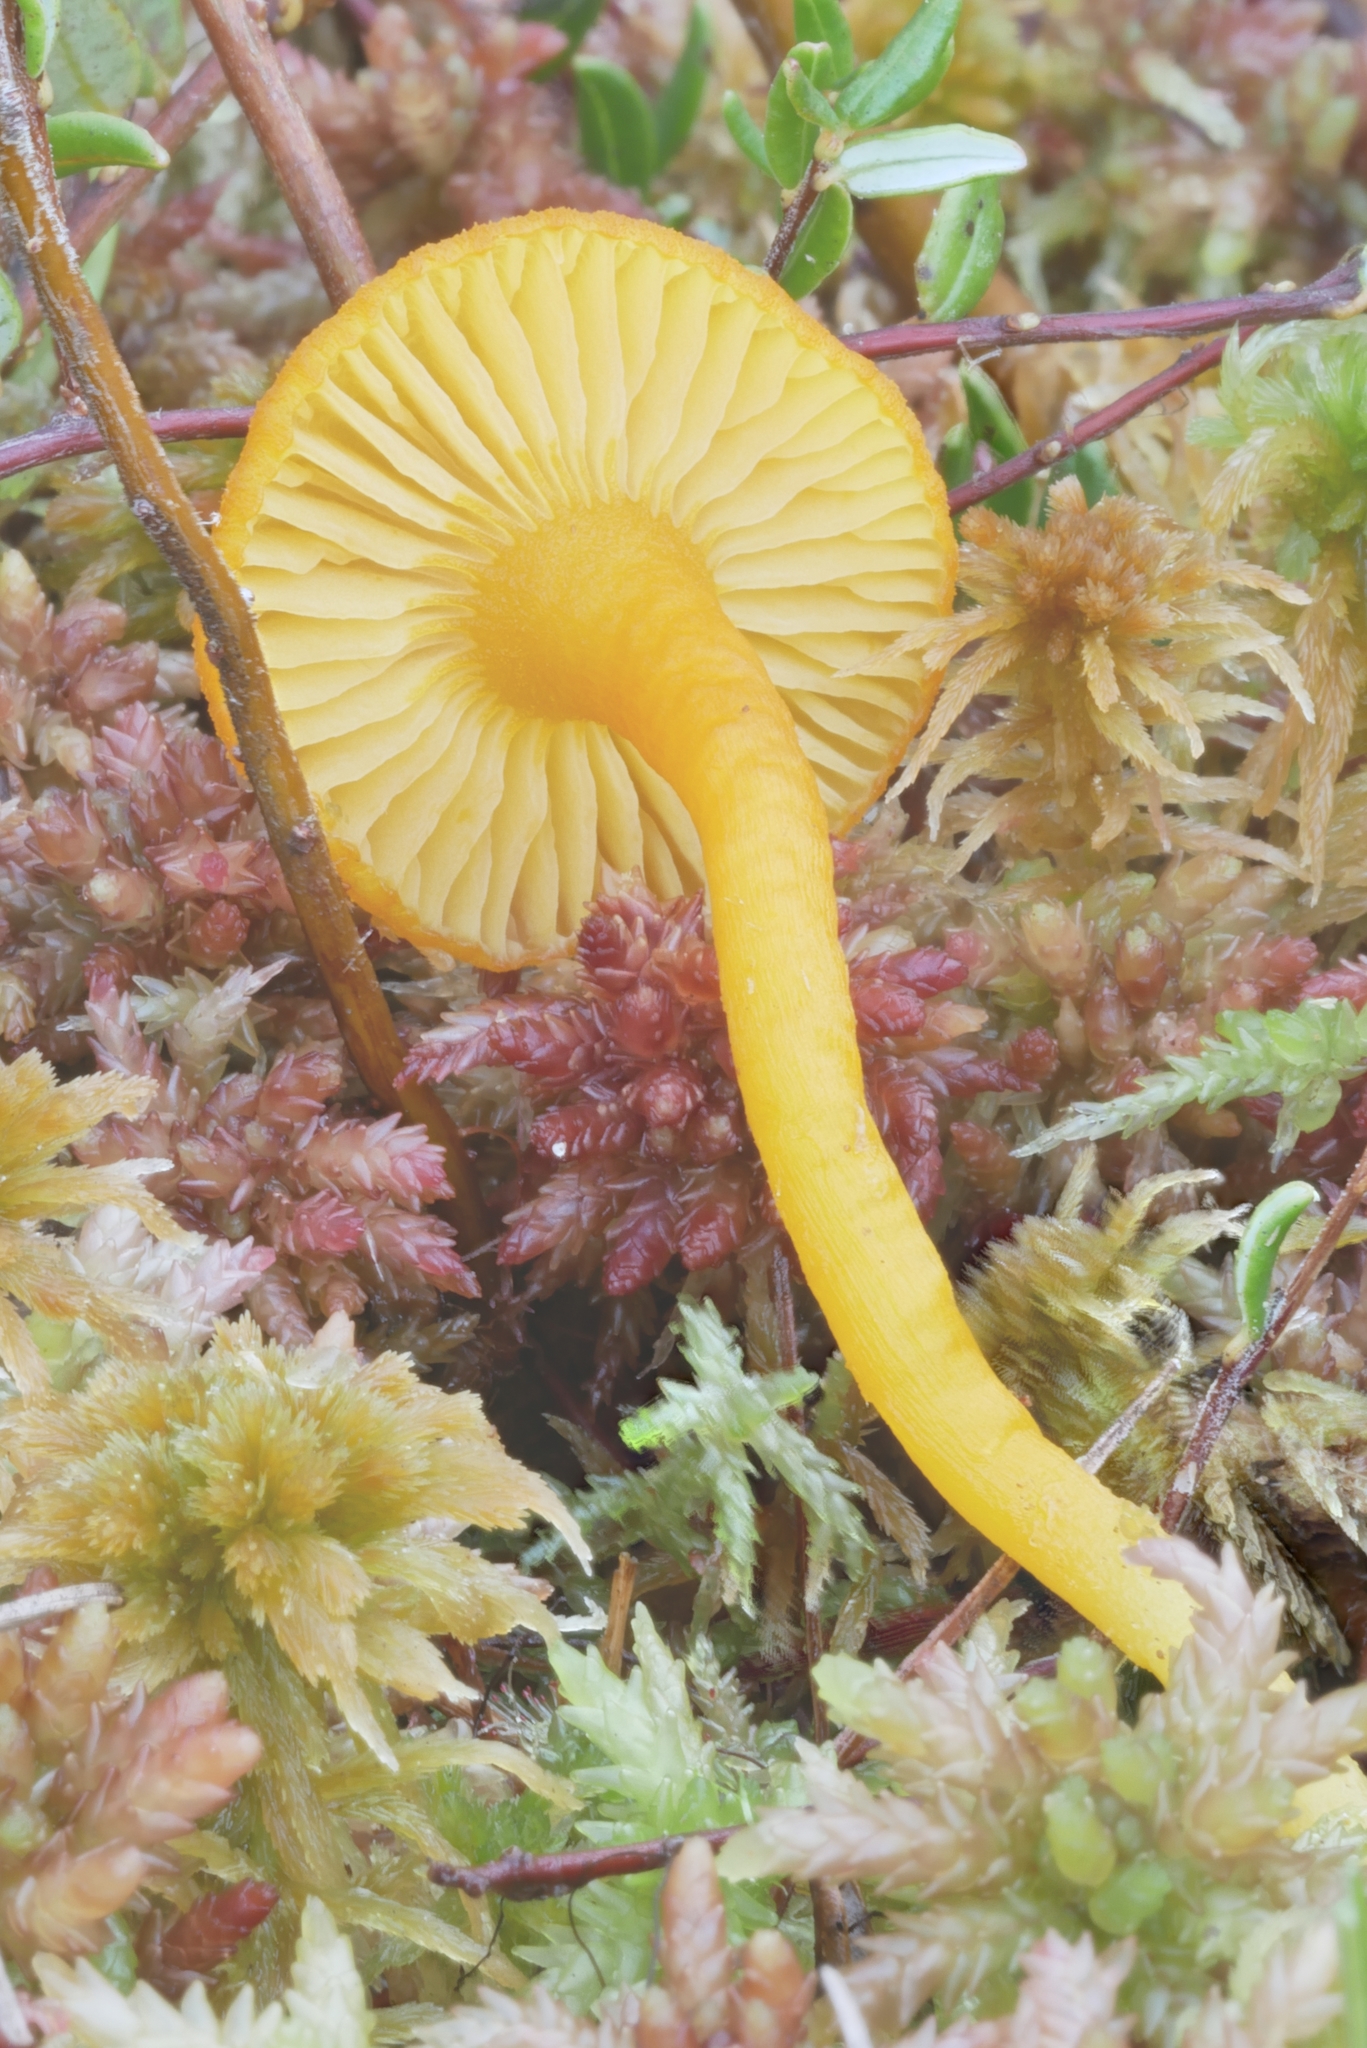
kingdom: Fungi
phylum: Basidiomycota
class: Agaricomycetes
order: Agaricales
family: Hygrophoraceae
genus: Gloioxanthomyces
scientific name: Gloioxanthomyces nitidus
